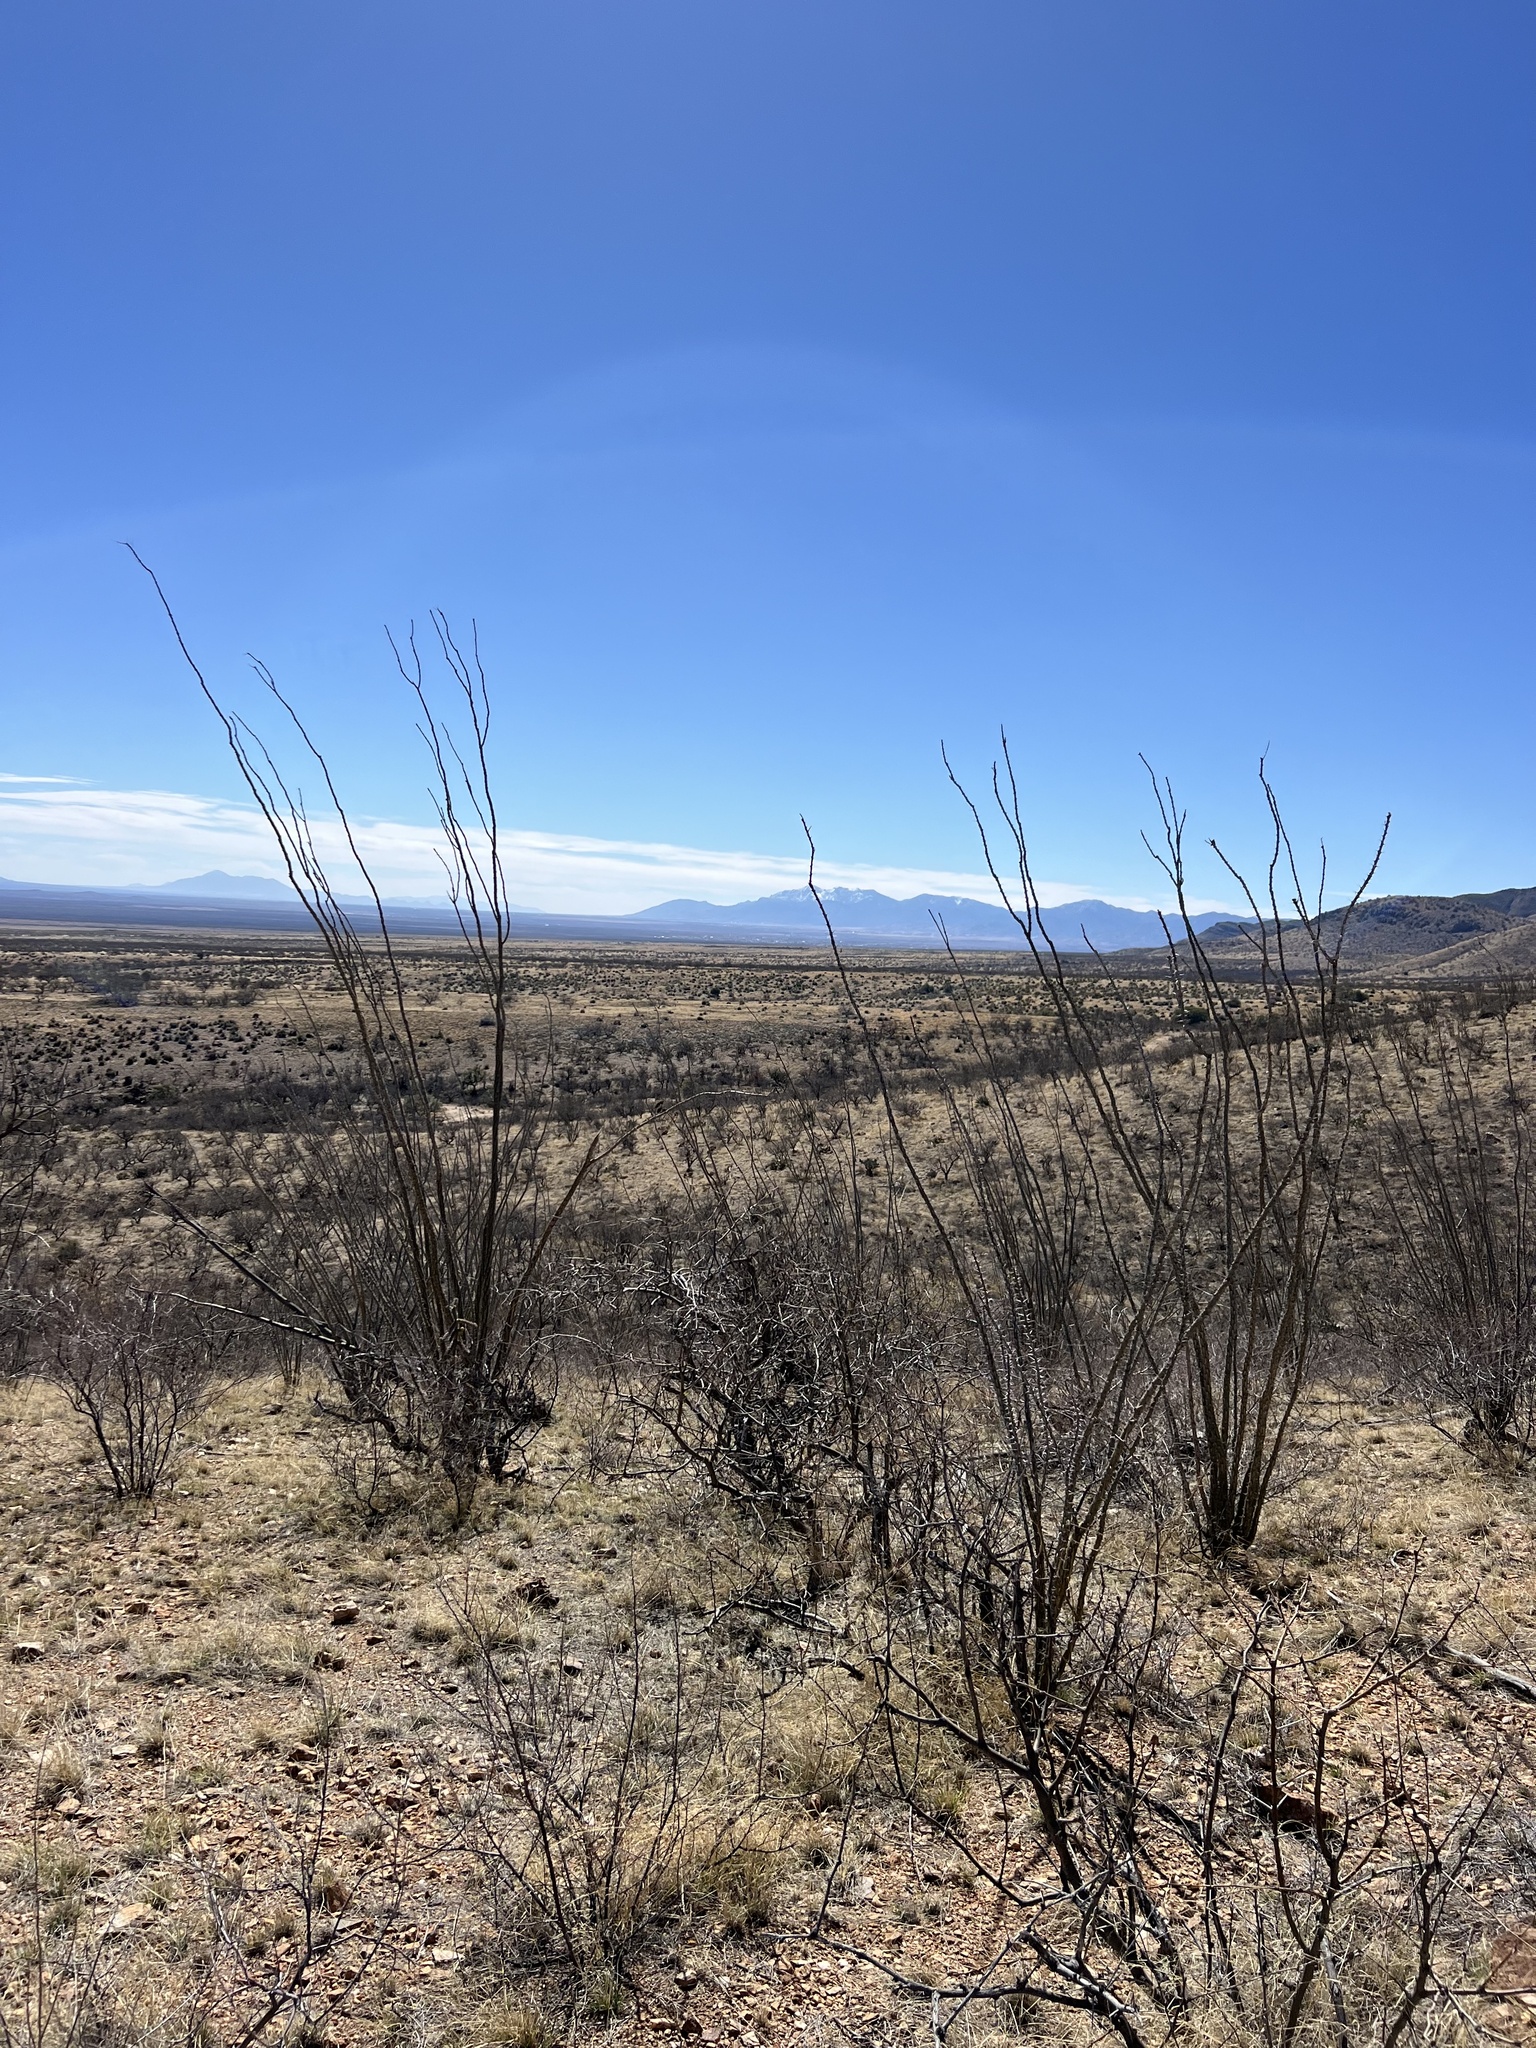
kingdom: Plantae
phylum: Tracheophyta
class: Magnoliopsida
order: Ericales
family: Fouquieriaceae
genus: Fouquieria
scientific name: Fouquieria splendens
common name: Vine-cactus
